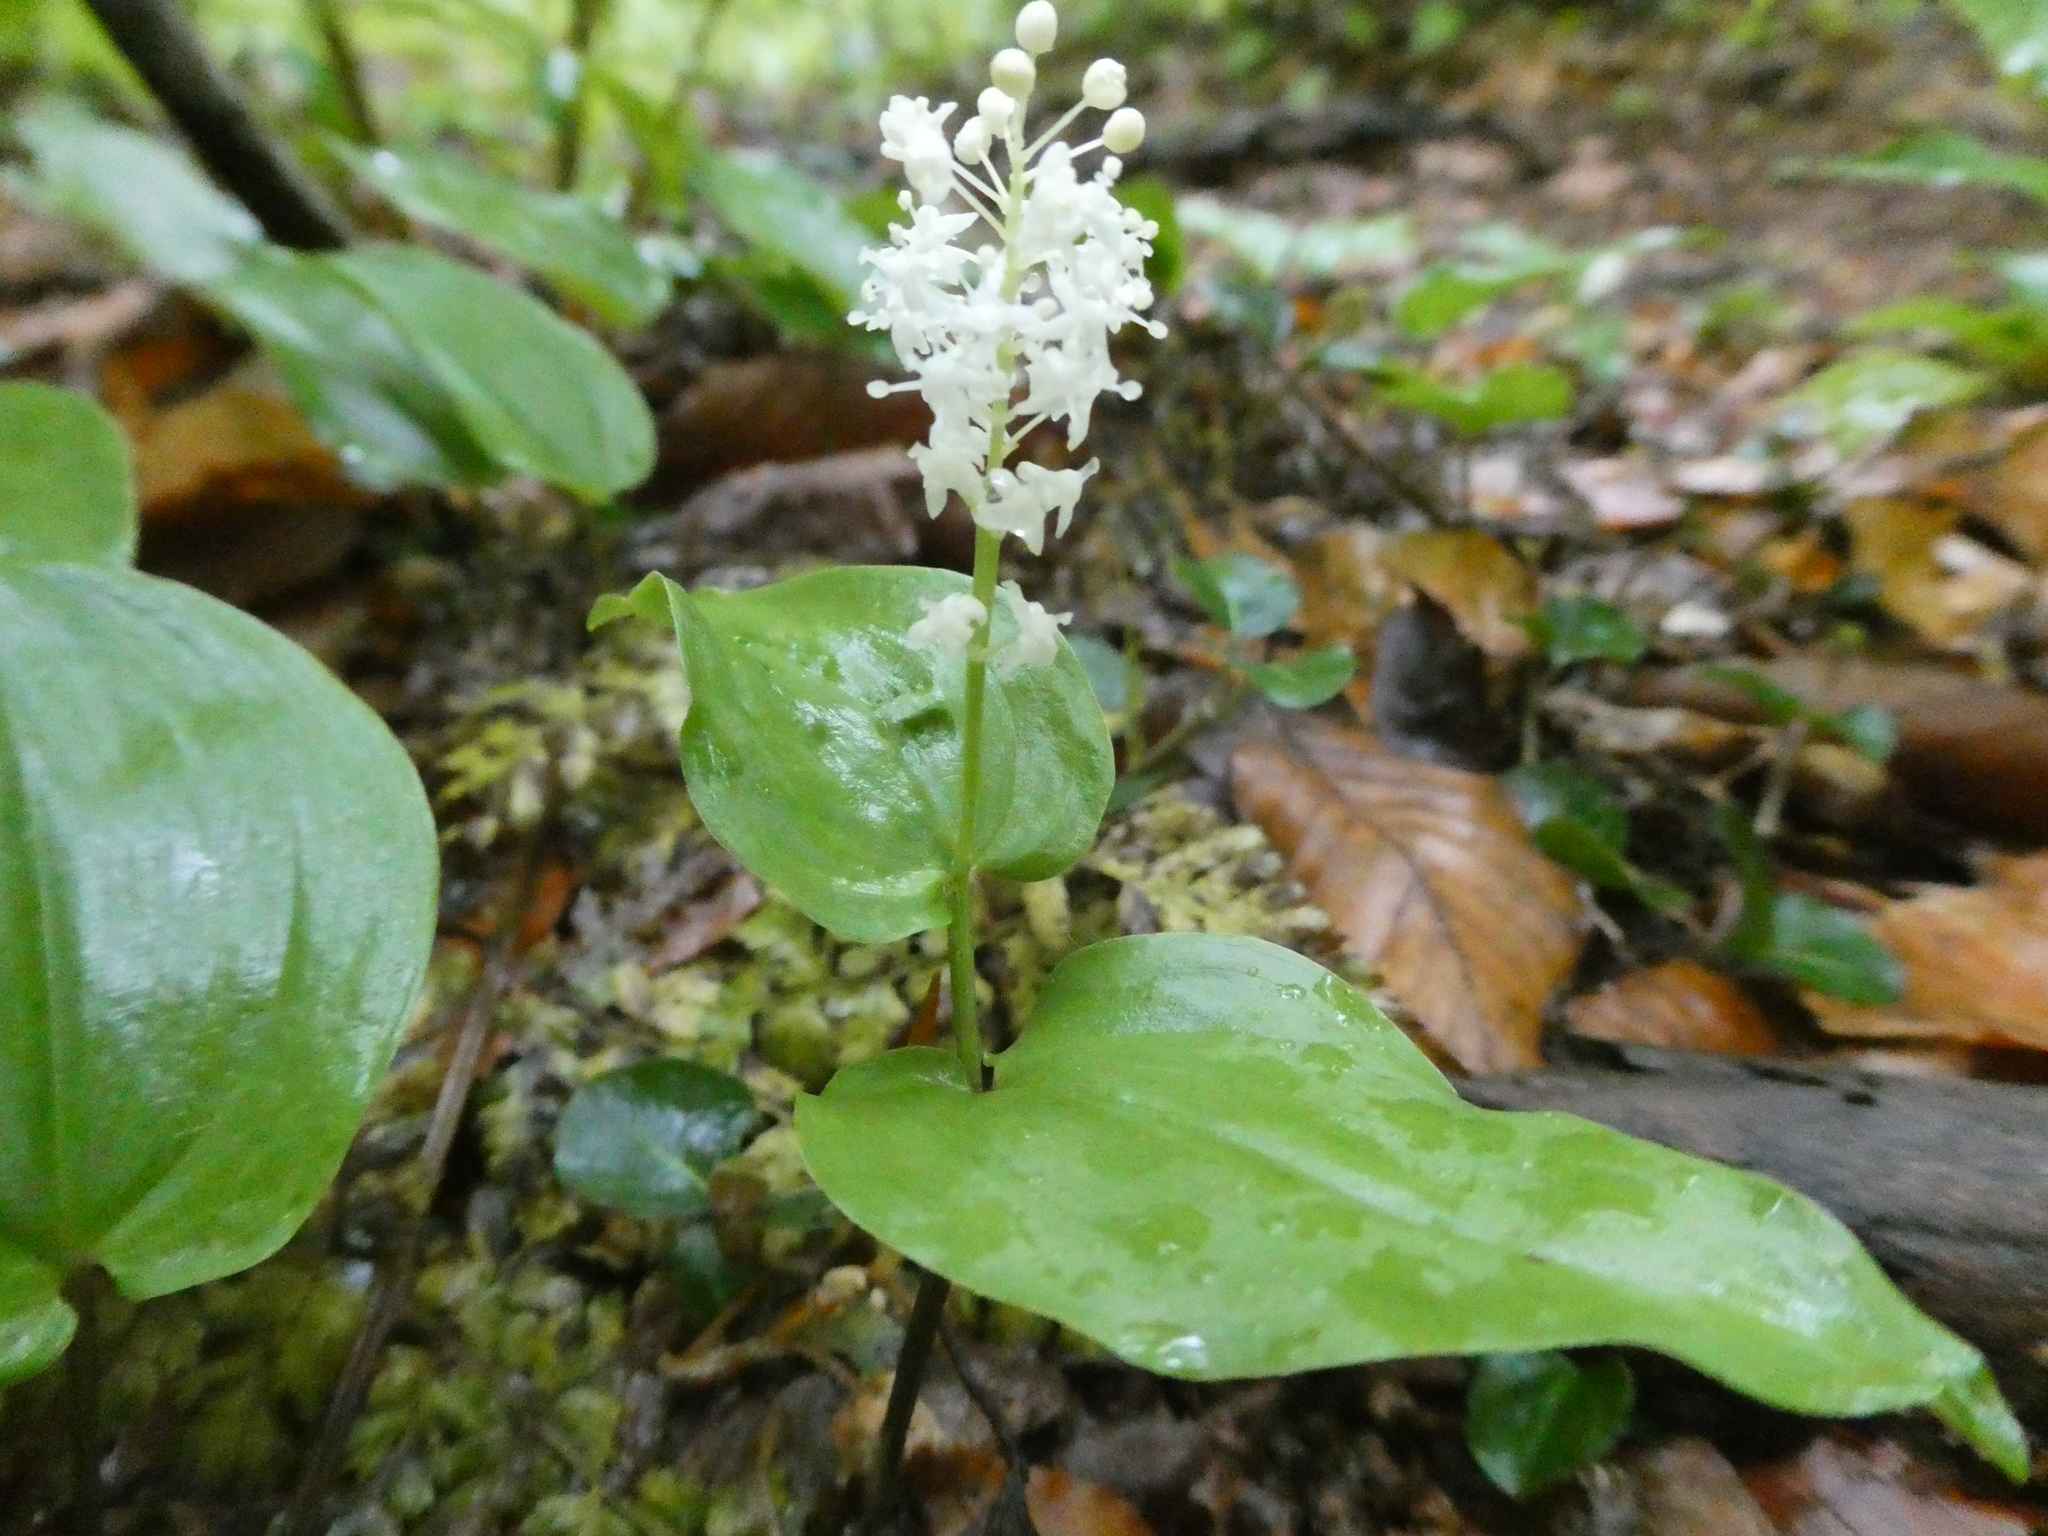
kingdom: Plantae
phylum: Tracheophyta
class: Liliopsida
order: Asparagales
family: Asparagaceae
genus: Maianthemum
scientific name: Maianthemum canadense
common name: False lily-of-the-valley
